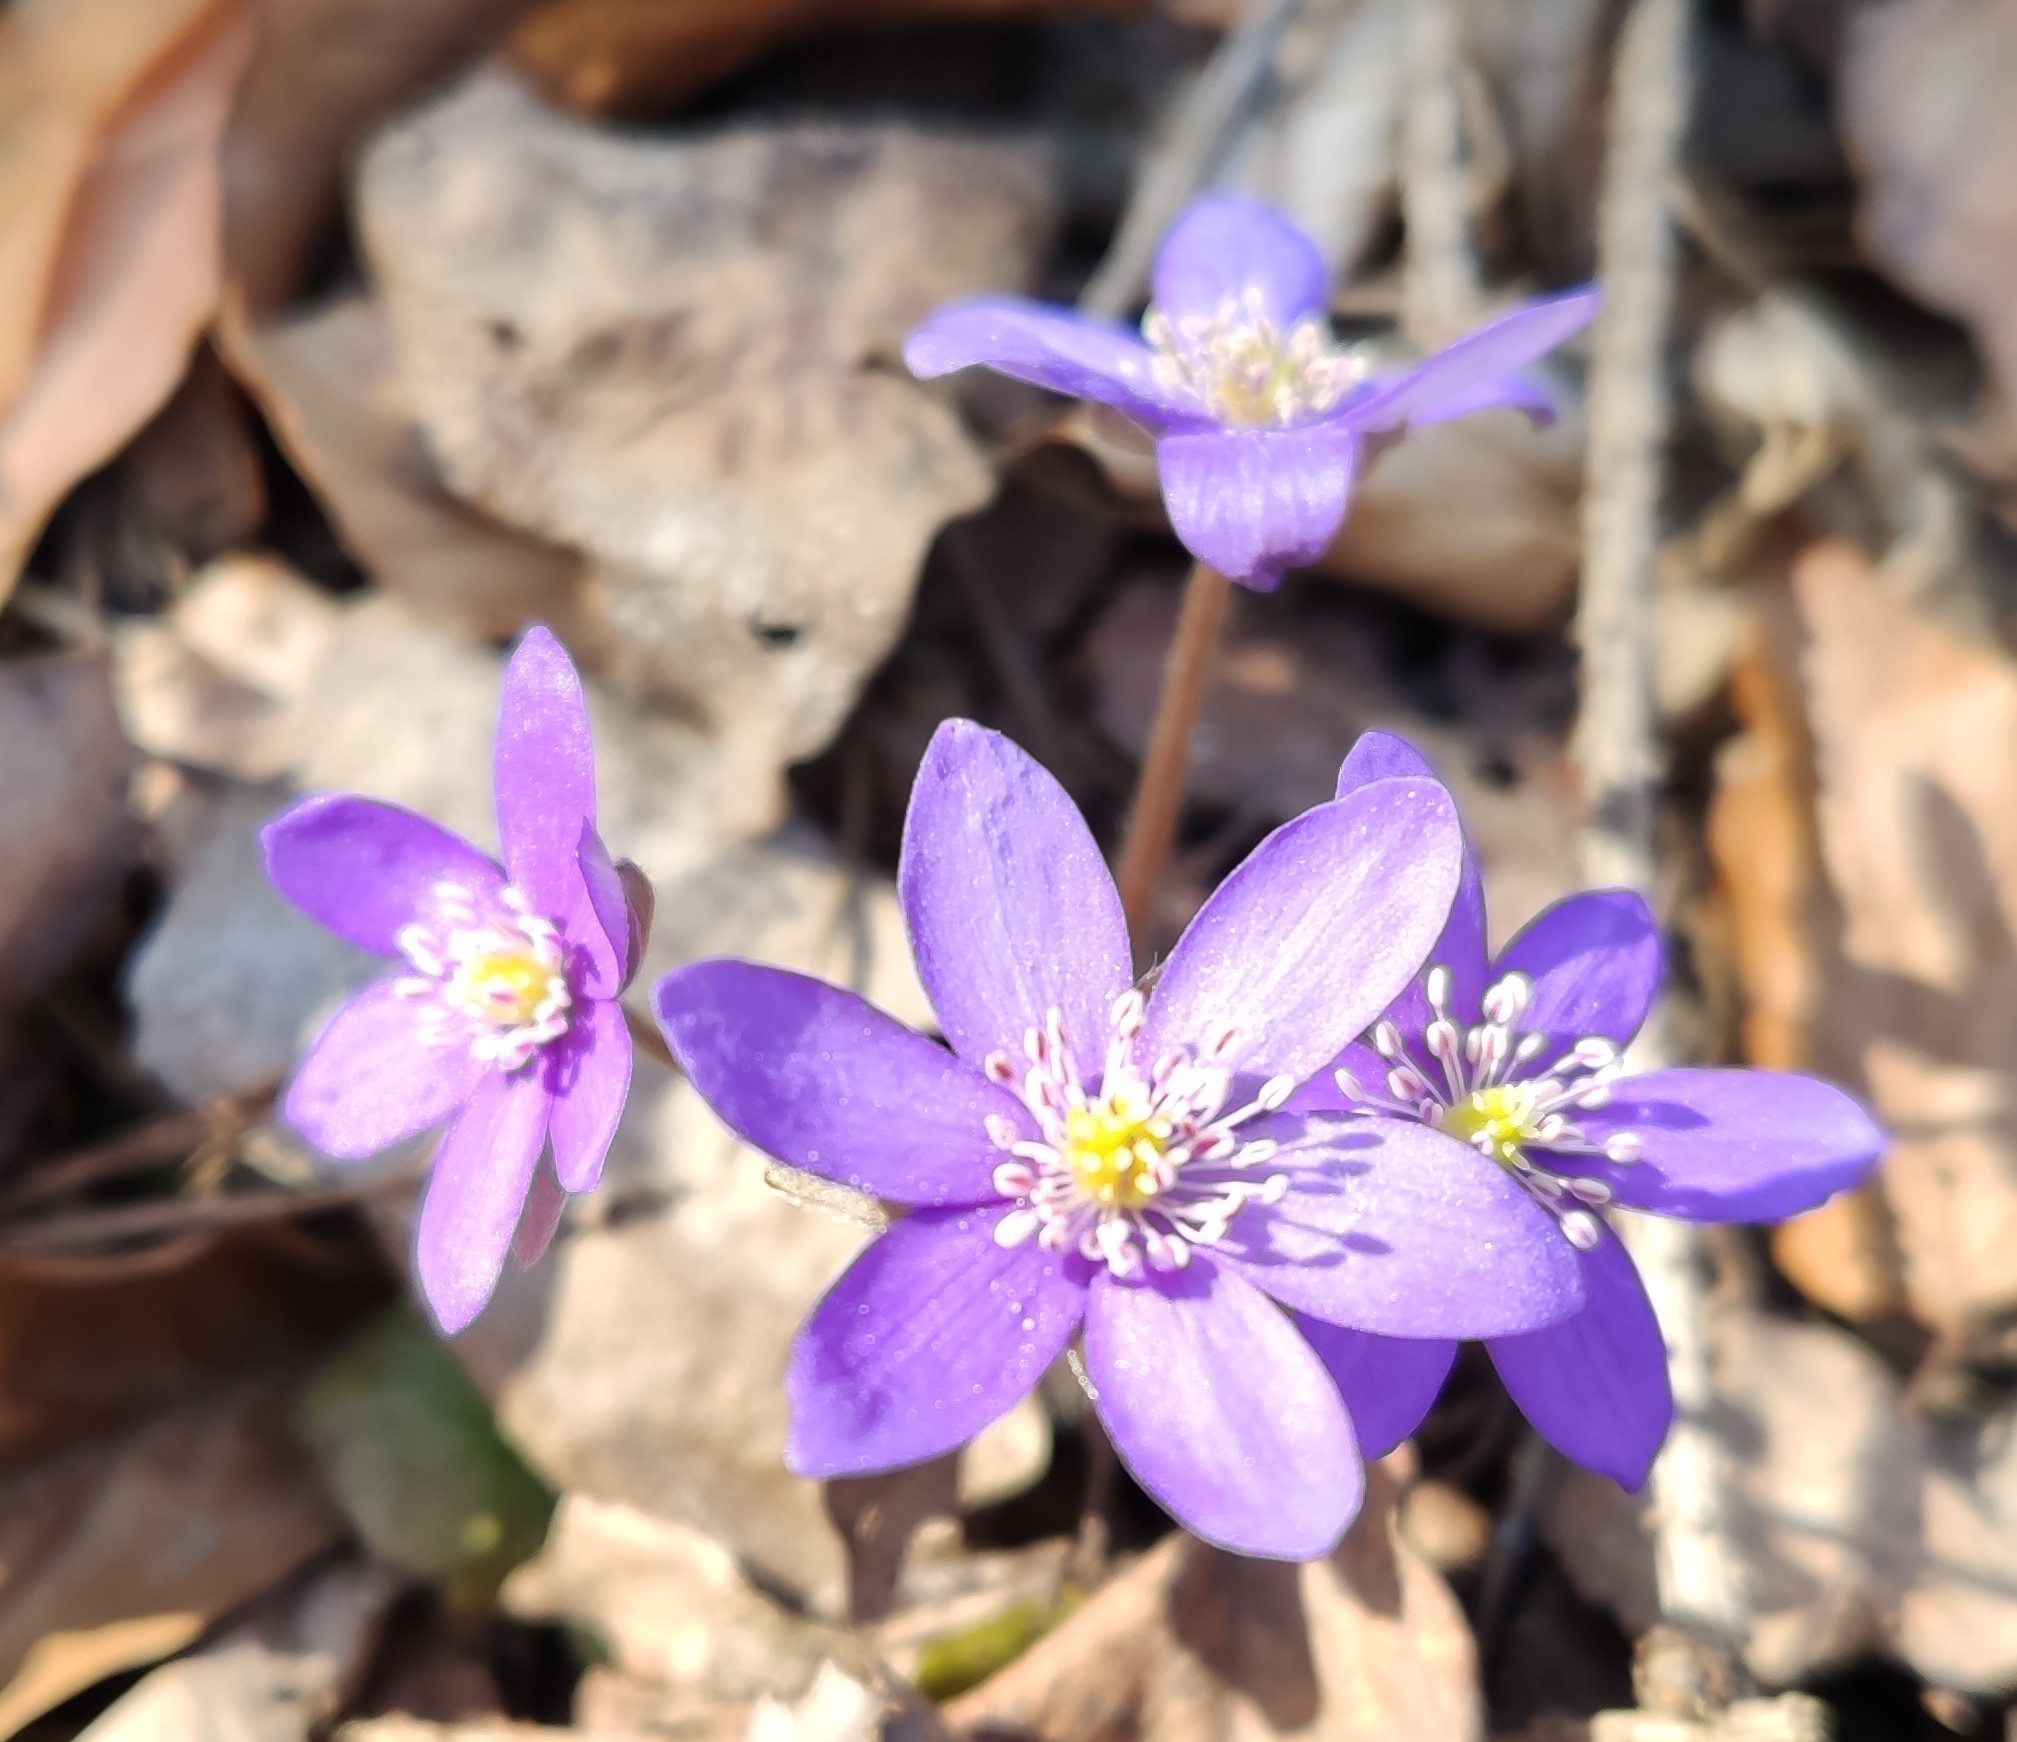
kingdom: Plantae
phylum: Tracheophyta
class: Magnoliopsida
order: Ranunculales
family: Ranunculaceae
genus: Hepatica
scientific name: Hepatica nobilis
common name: Liverleaf
